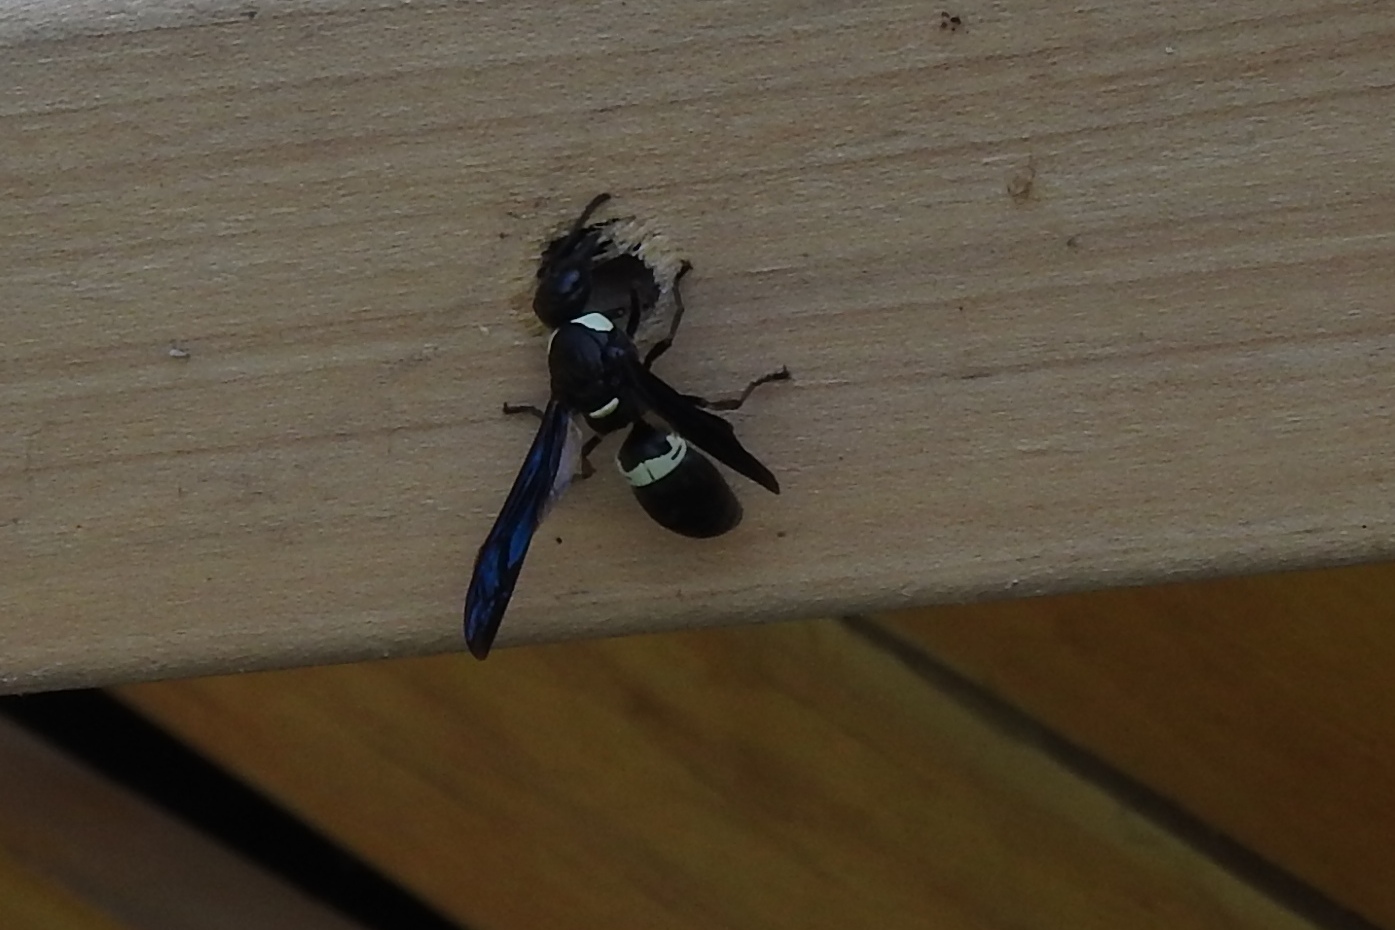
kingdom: Animalia
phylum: Arthropoda
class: Insecta
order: Hymenoptera
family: Eumenidae
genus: Monobia
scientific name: Monobia quadridens
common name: Four-toothed mason wasp
